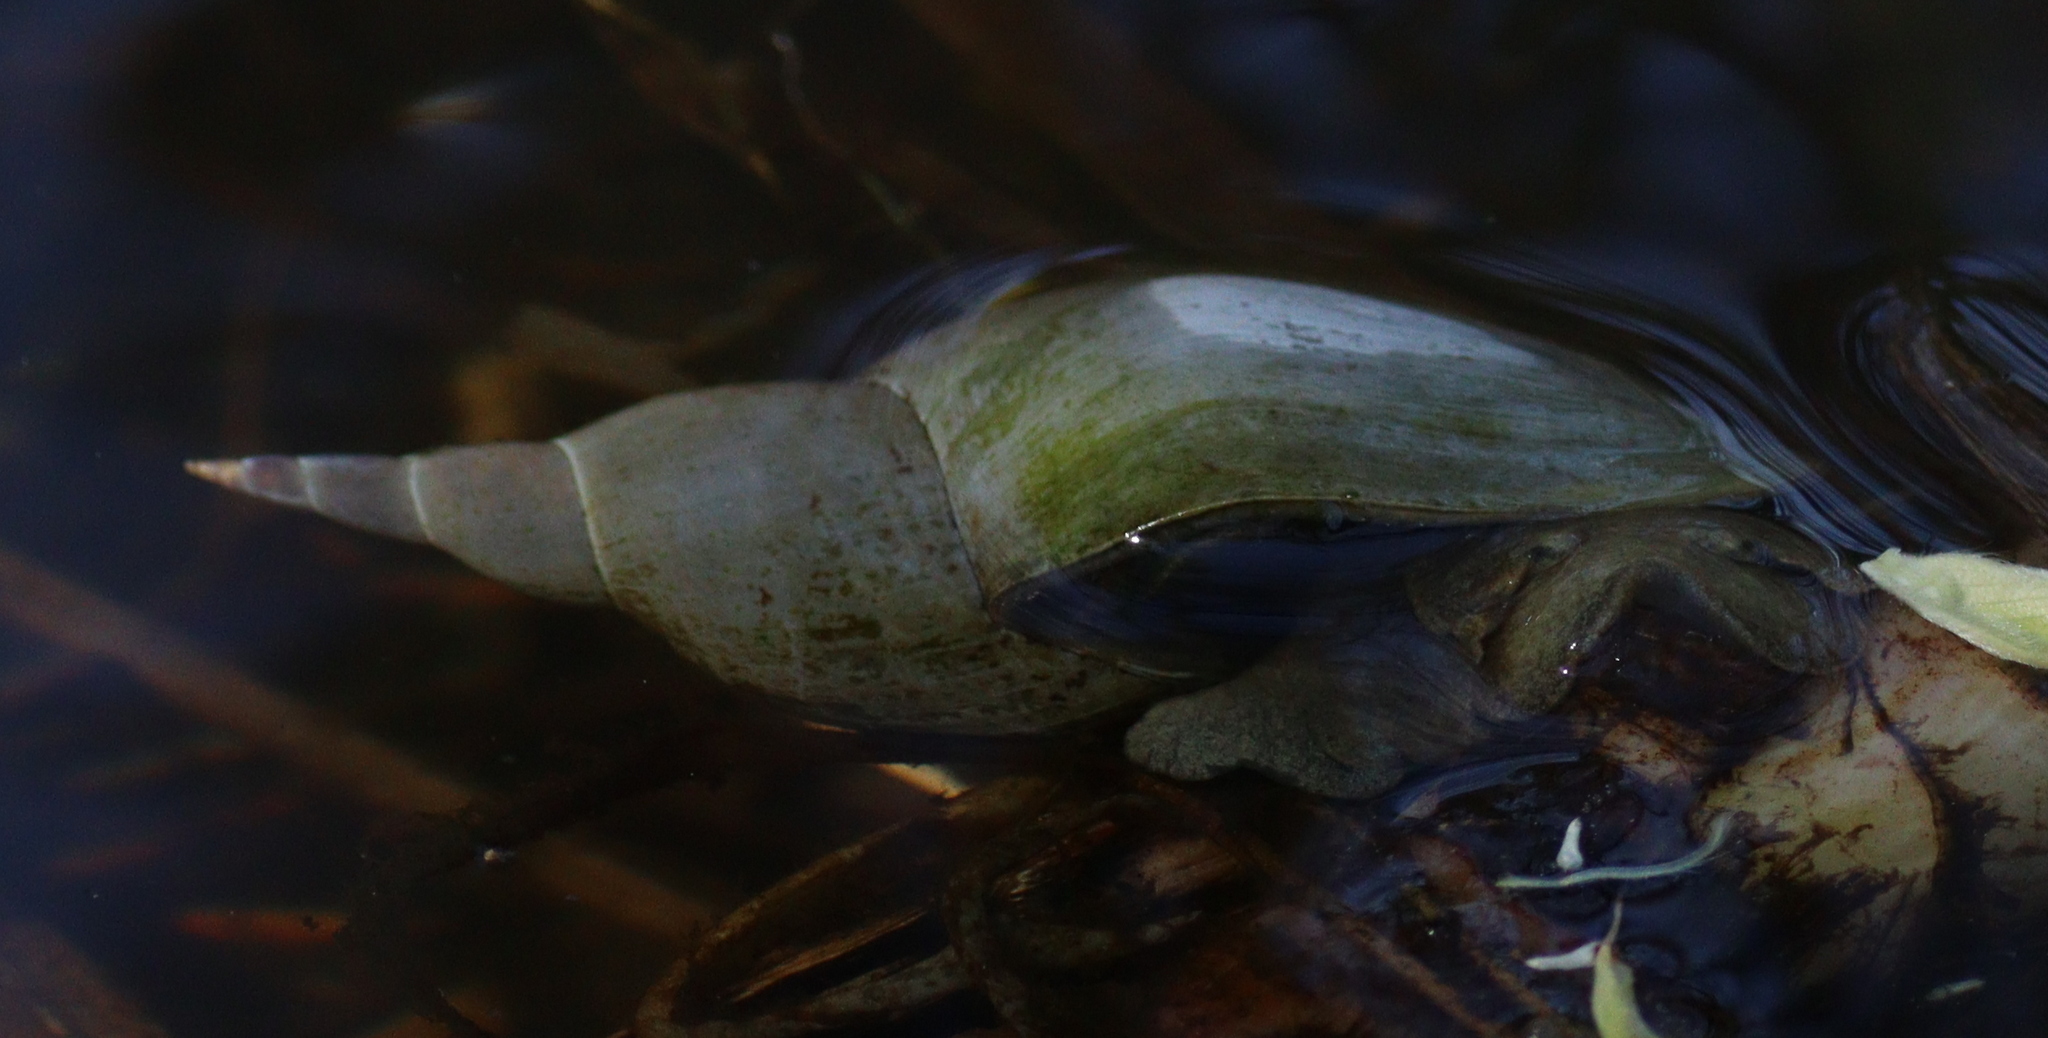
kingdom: Animalia
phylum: Mollusca
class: Gastropoda
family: Lymnaeidae
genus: Lymnaea
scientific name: Lymnaea stagnalis
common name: Great pond snail
